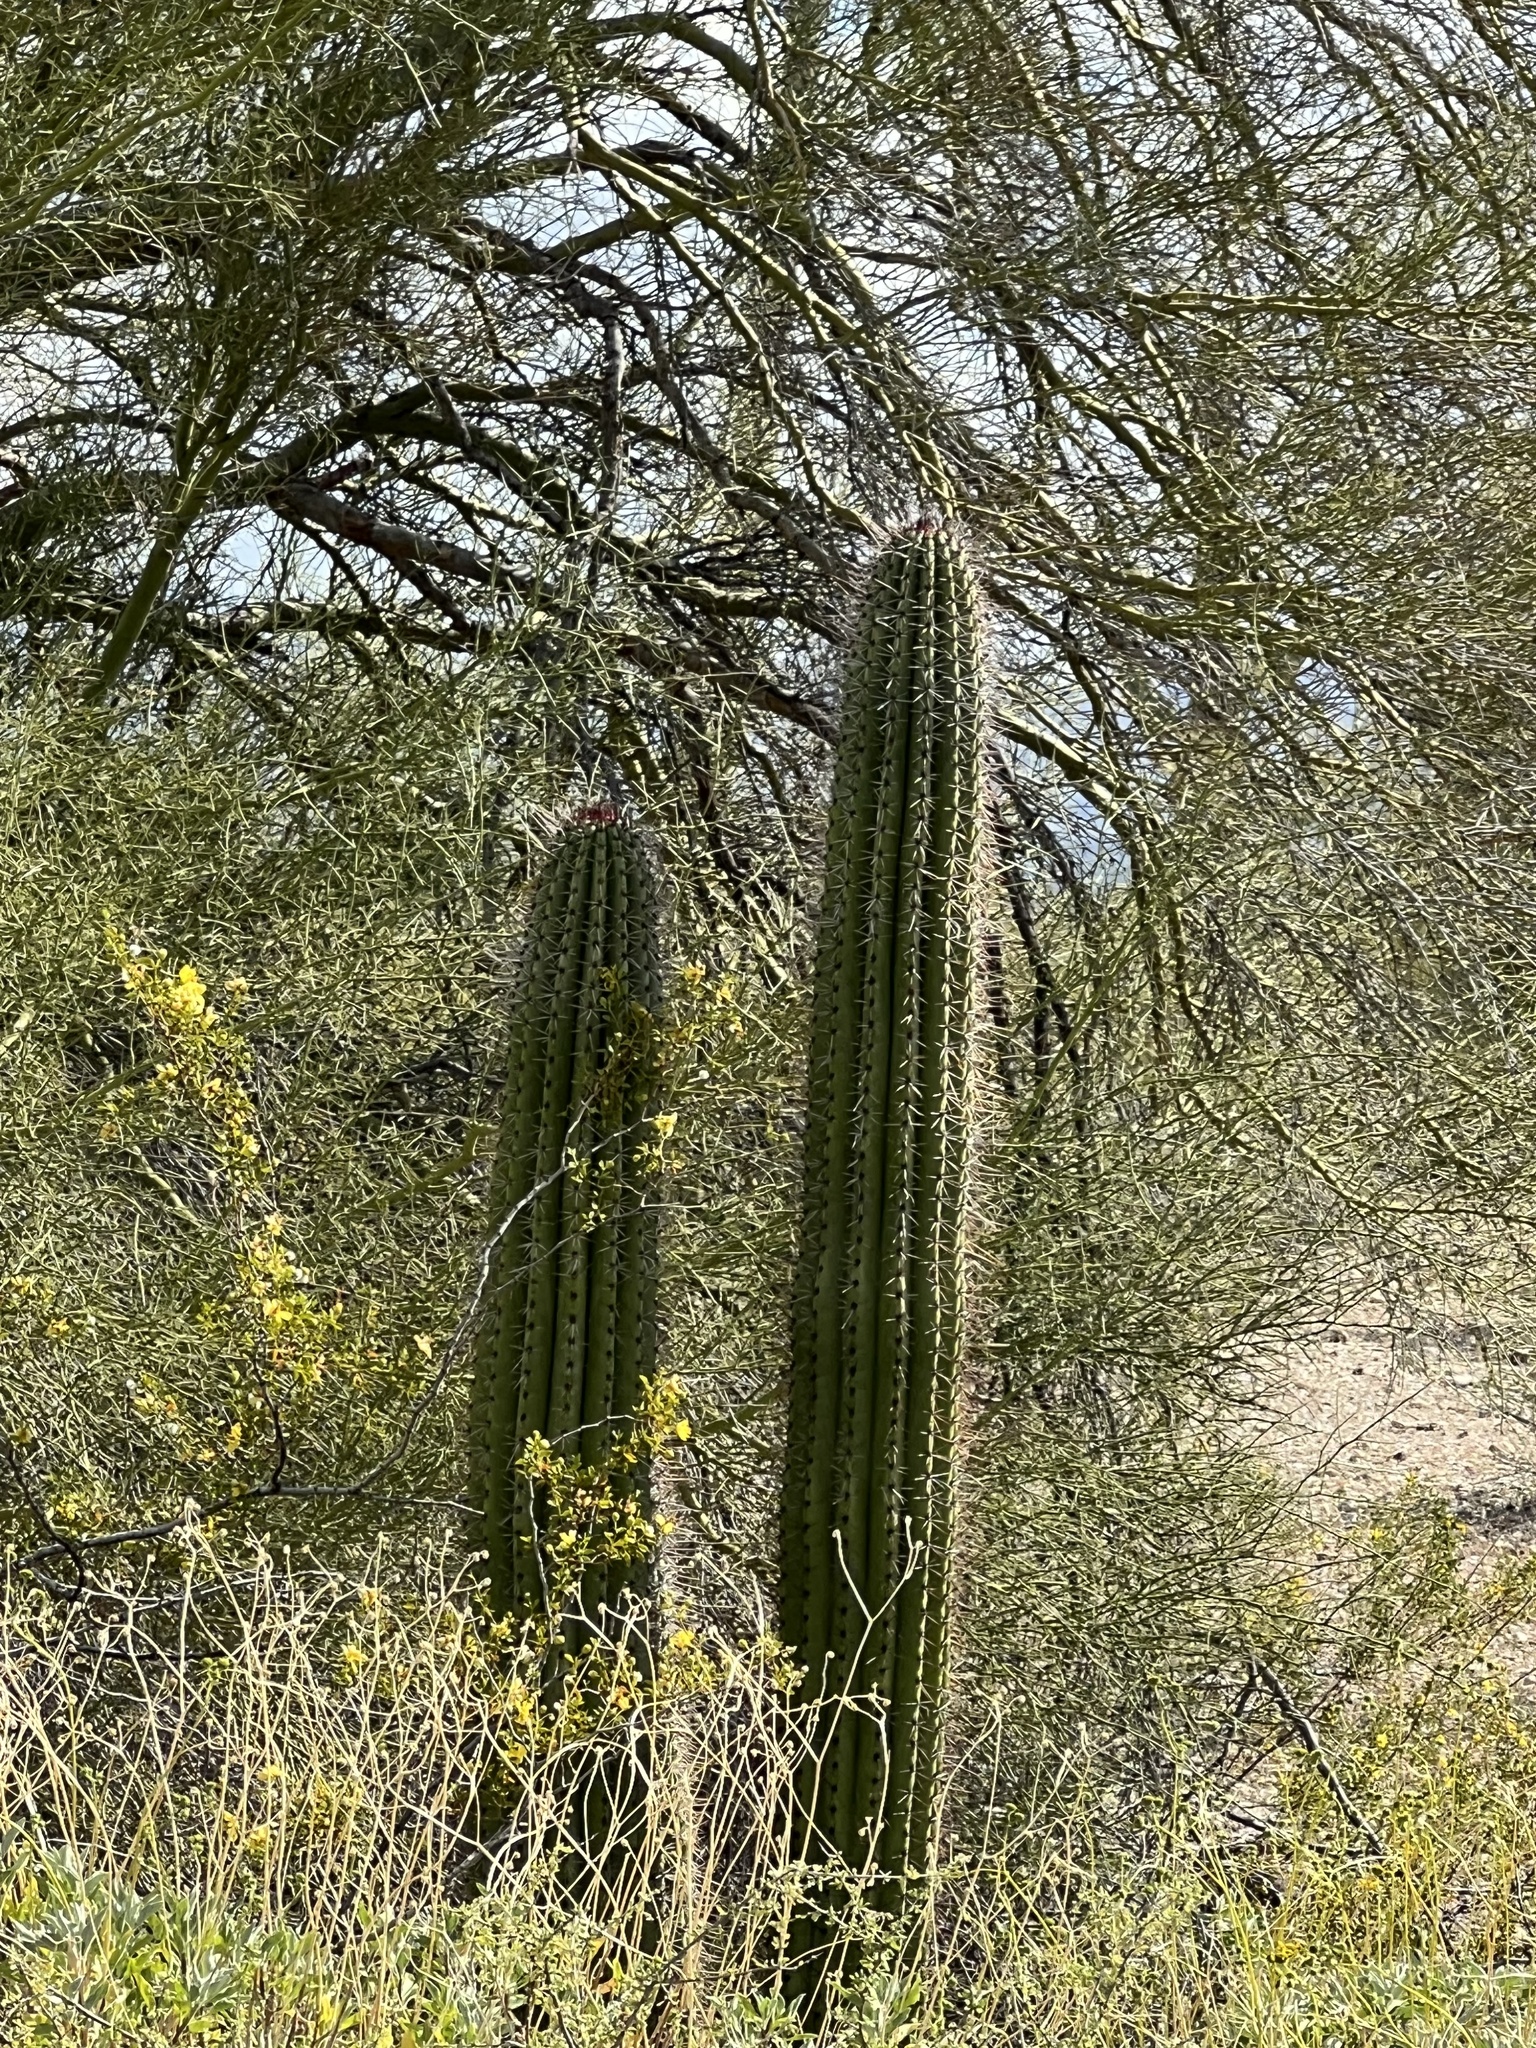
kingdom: Plantae
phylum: Tracheophyta
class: Magnoliopsida
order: Caryophyllales
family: Cactaceae
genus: Stenocereus
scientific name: Stenocereus thurberi
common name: Organ pipe cactus
